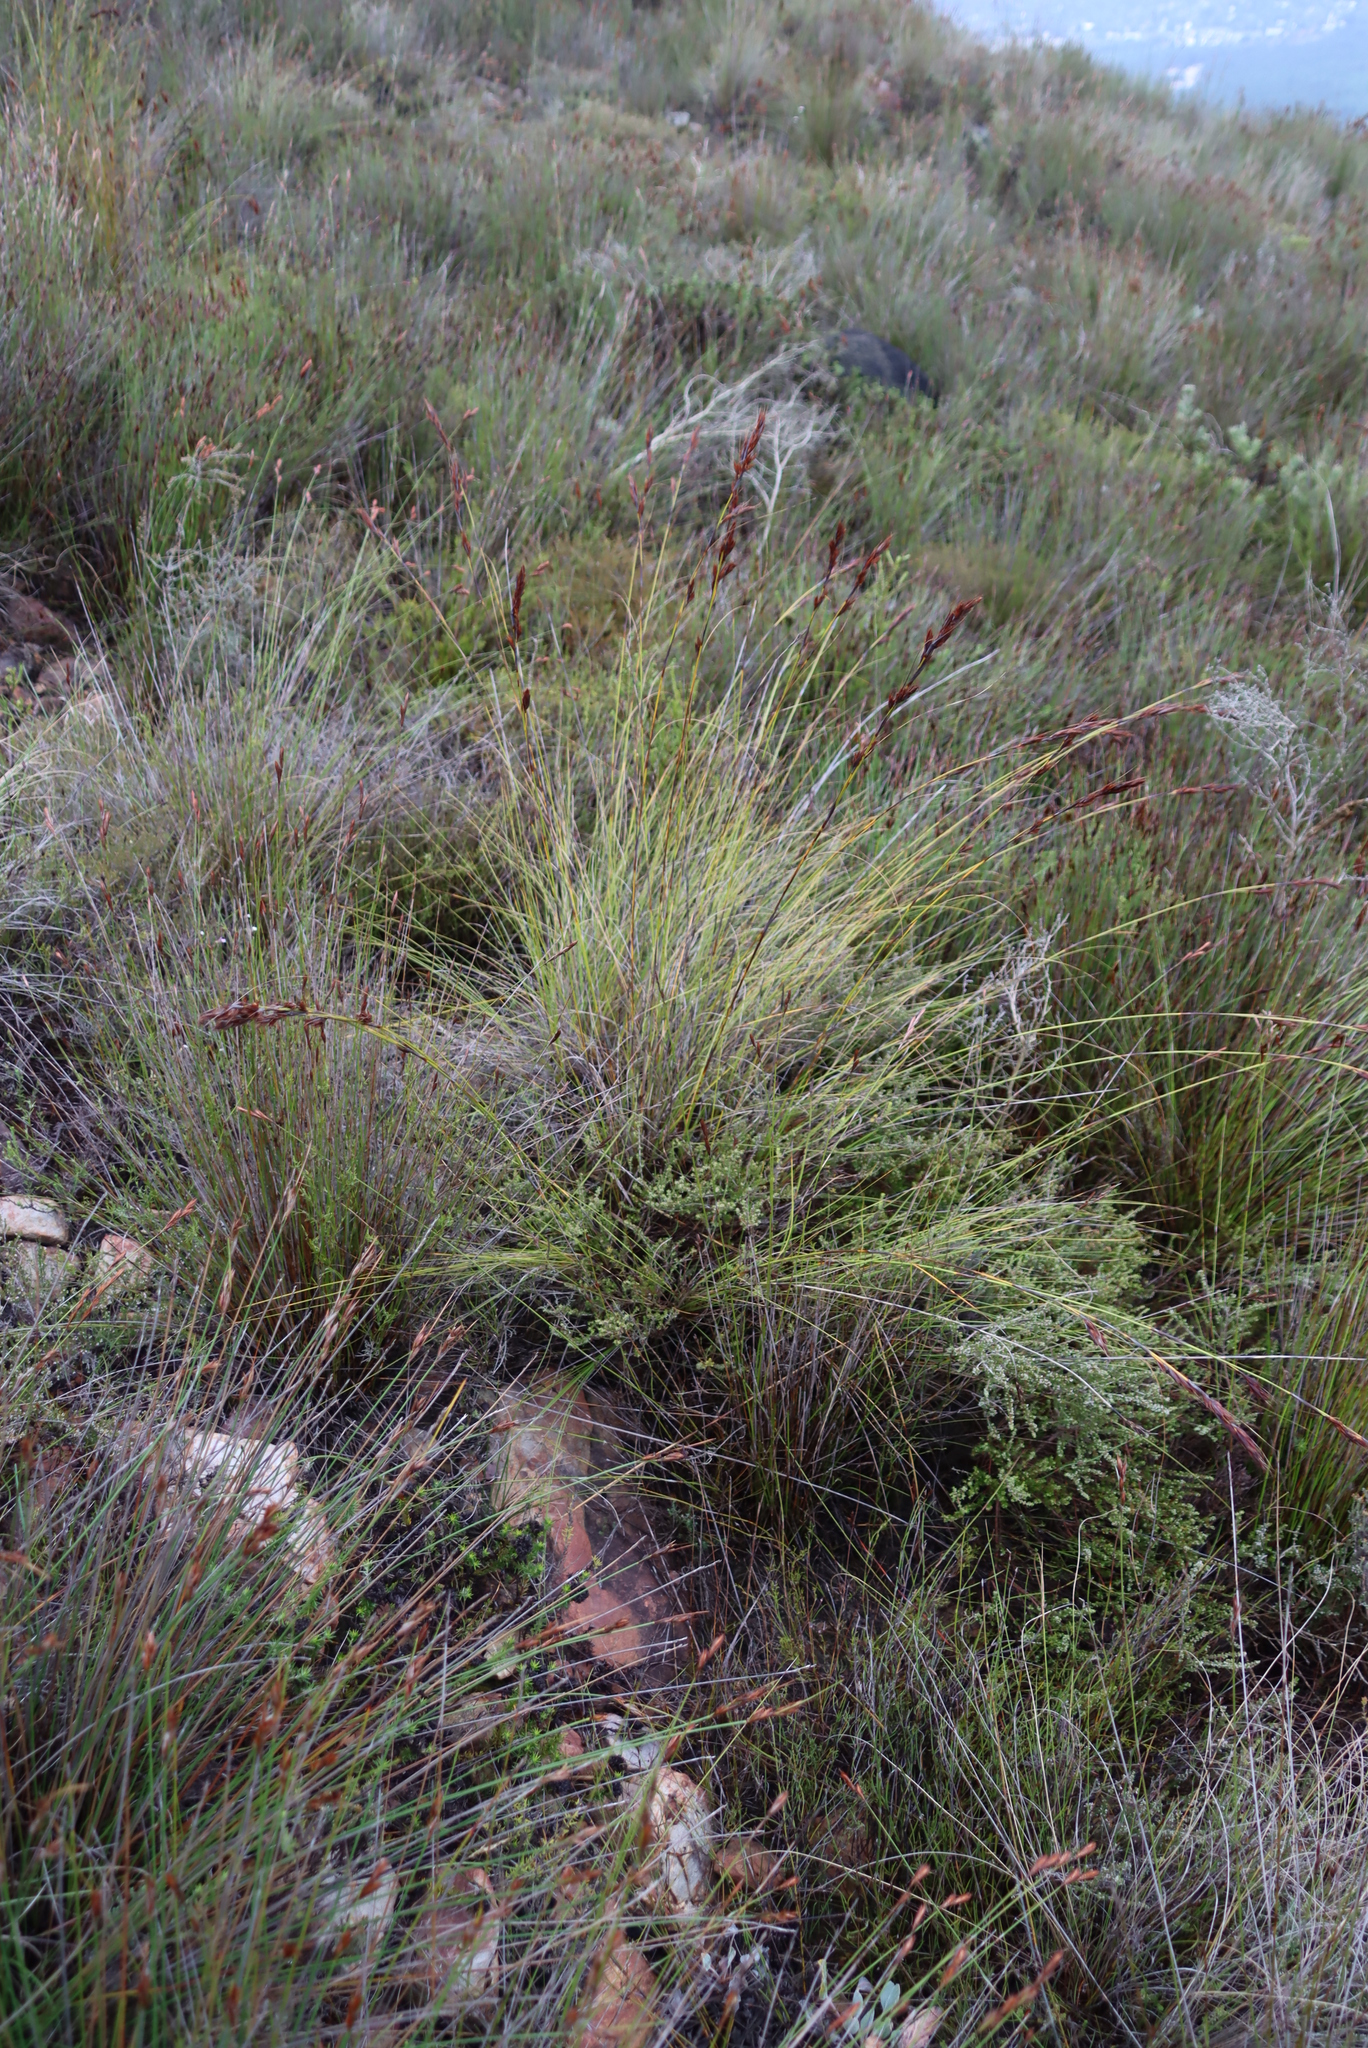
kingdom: Plantae
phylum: Tracheophyta
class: Liliopsida
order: Poales
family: Cyperaceae
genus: Tetraria
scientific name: Tetraria ustulata
